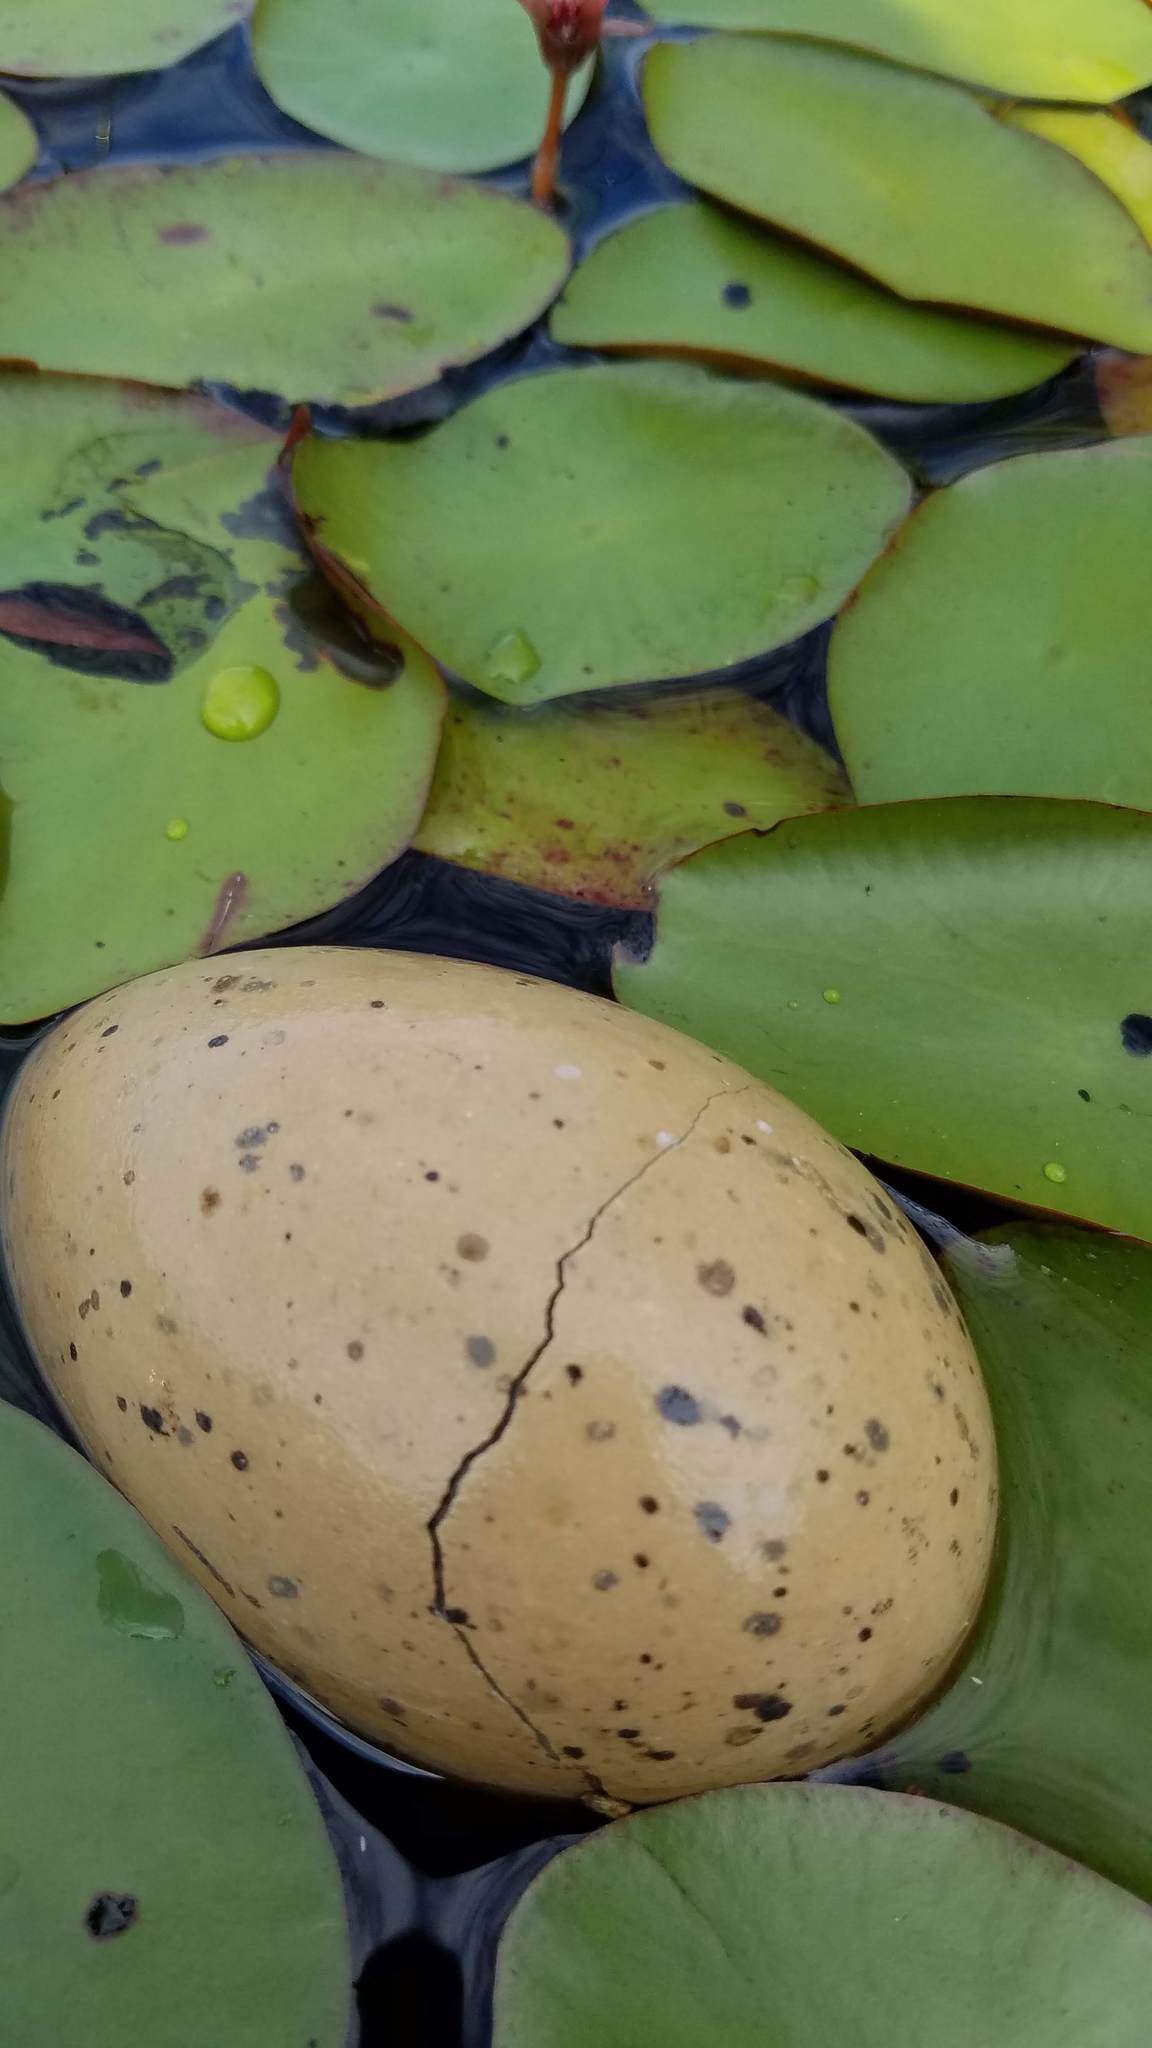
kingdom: Animalia
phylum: Chordata
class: Aves
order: Gruiformes
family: Gruidae
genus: Grus
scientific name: Grus canadensis
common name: Sandhill crane
